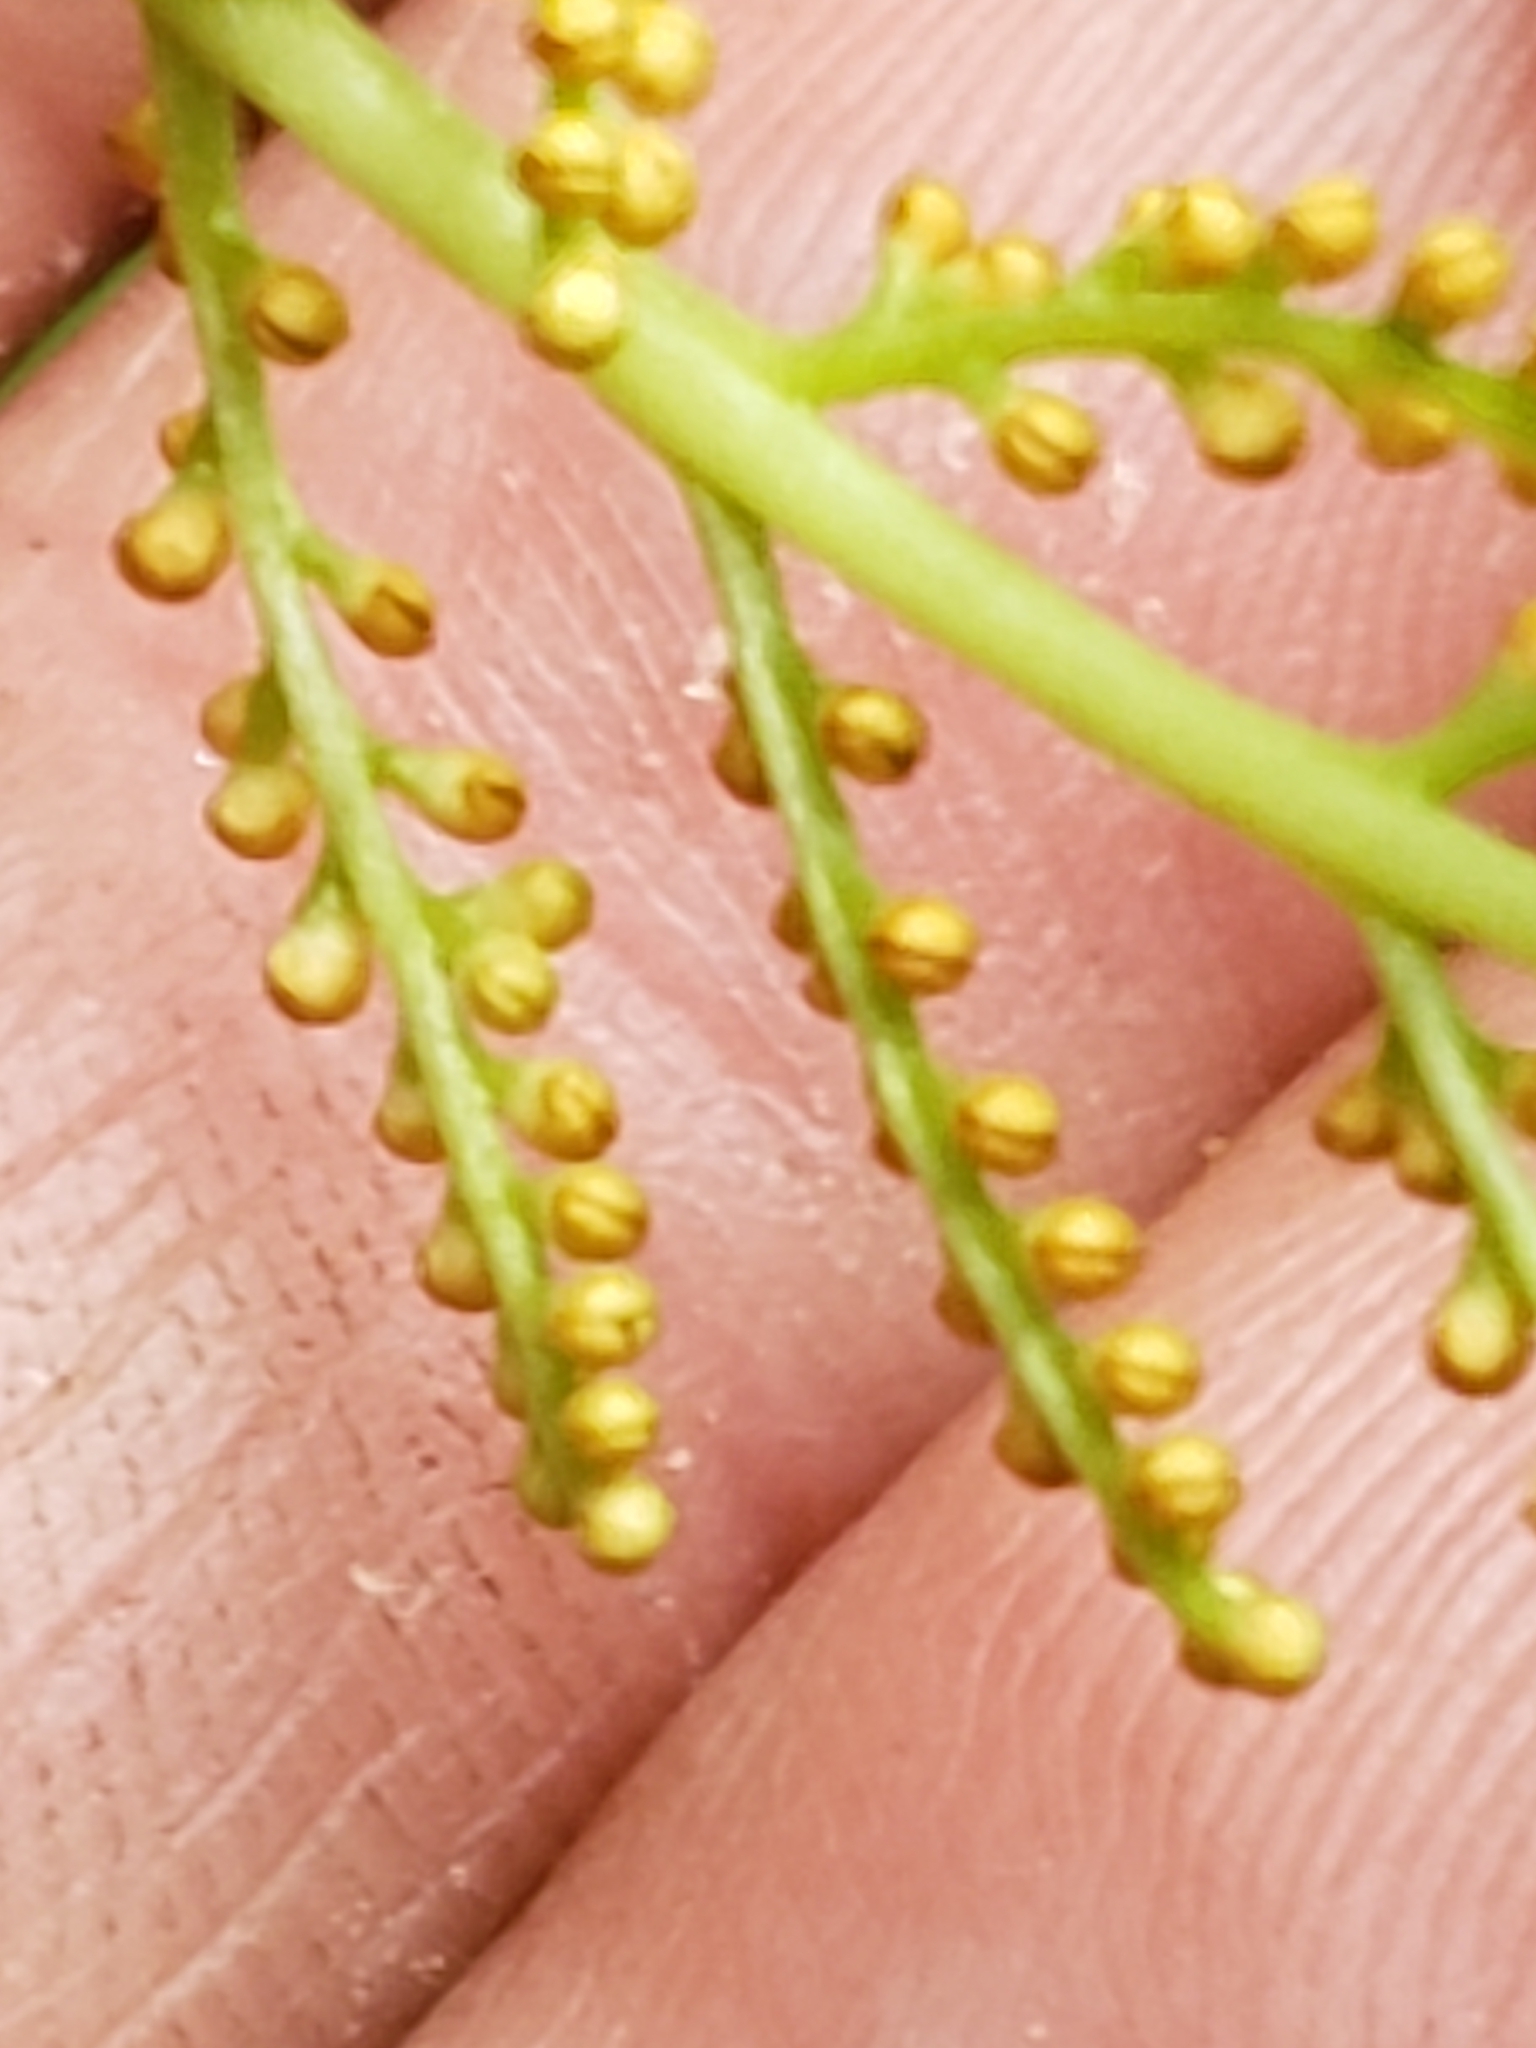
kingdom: Plantae
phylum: Tracheophyta
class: Polypodiopsida
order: Ophioglossales
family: Ophioglossaceae
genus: Botrypus
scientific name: Botrypus virginianus
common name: Common grapefern
